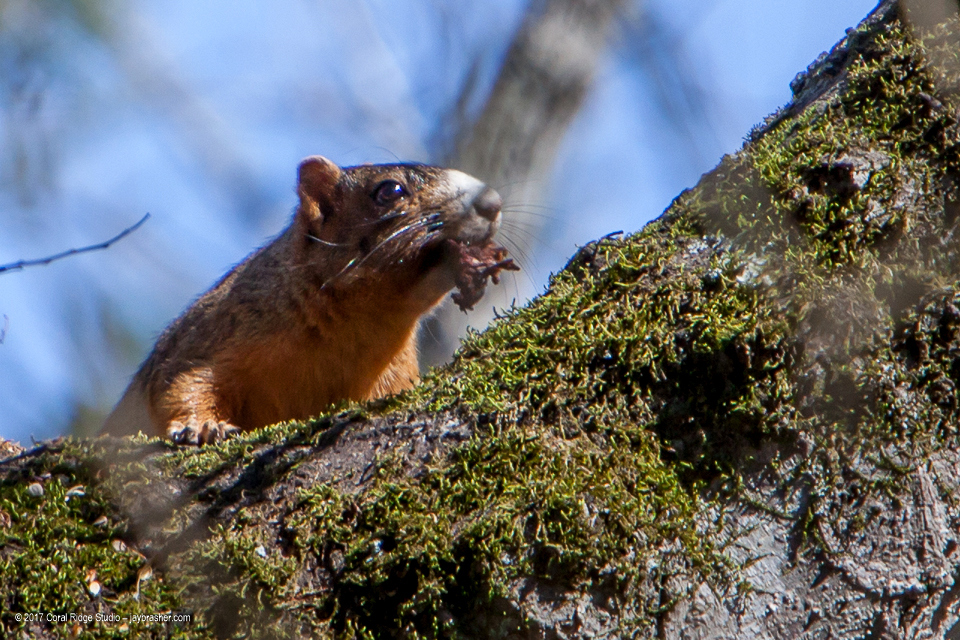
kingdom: Animalia
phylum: Chordata
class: Mammalia
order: Rodentia
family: Sciuridae
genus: Sciurus
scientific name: Sciurus niger
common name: Fox squirrel
